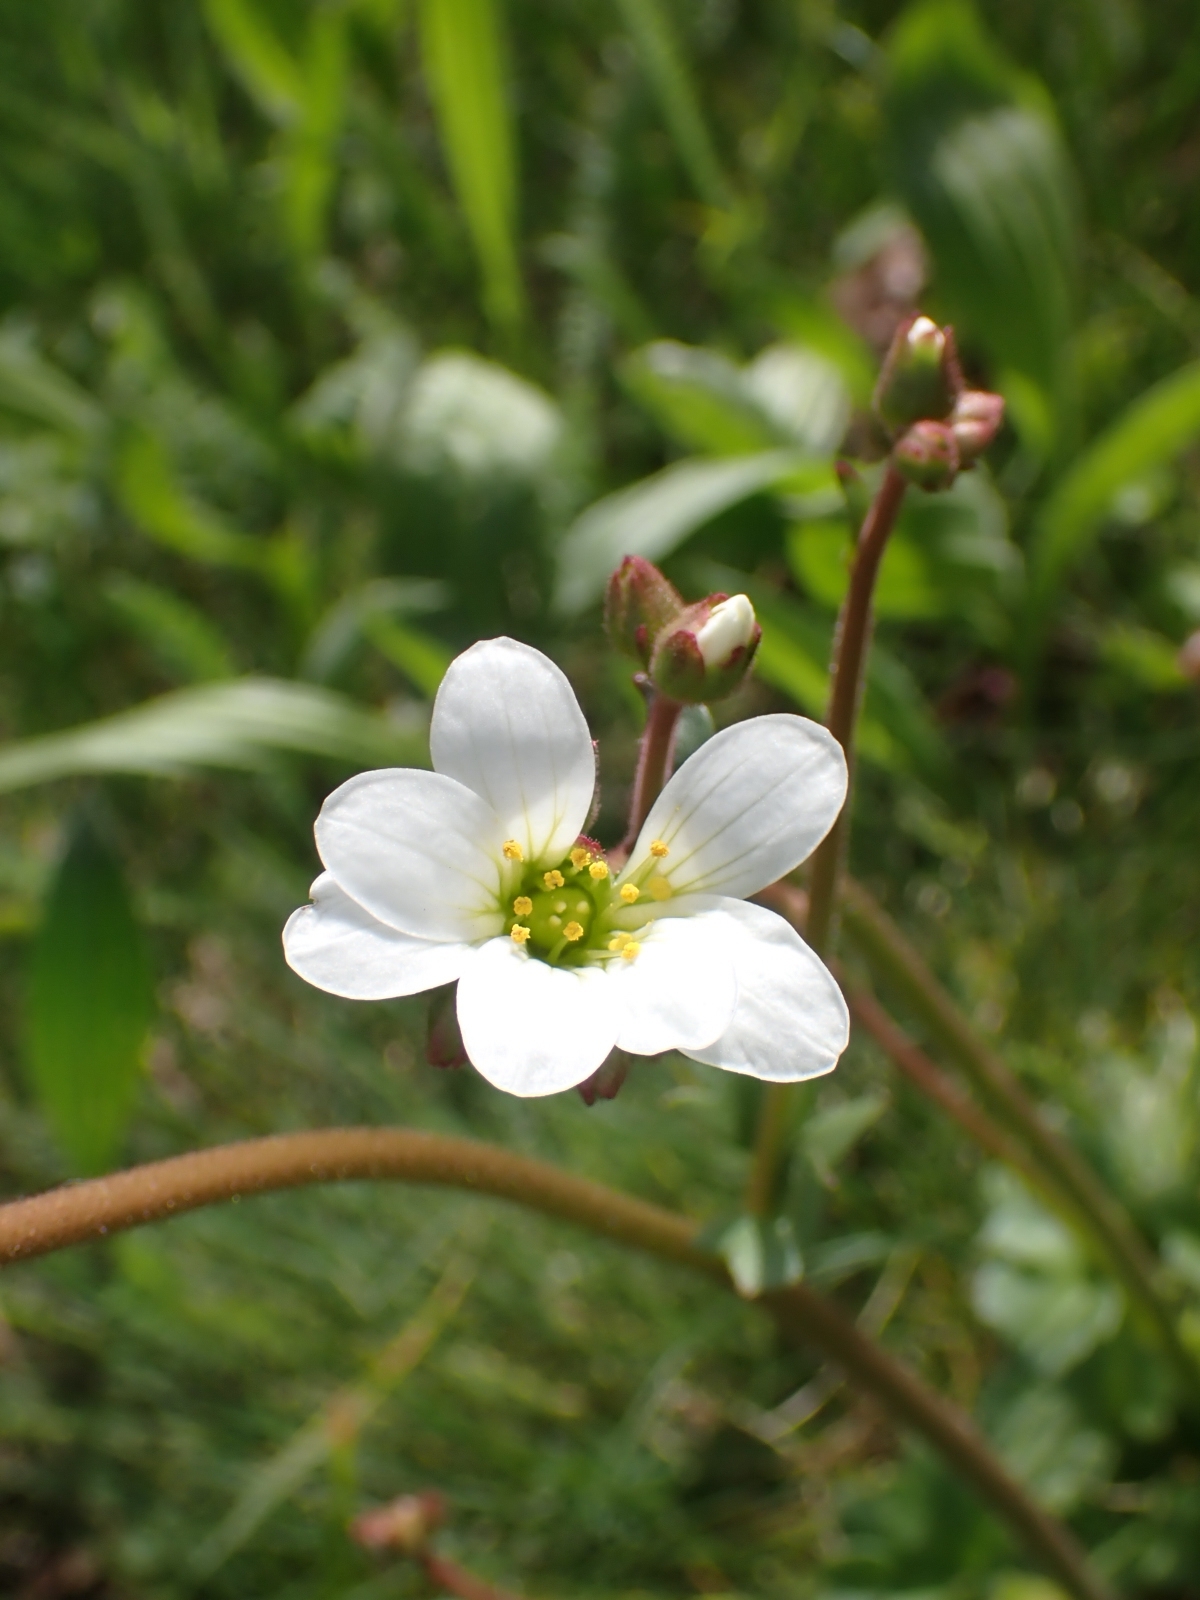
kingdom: Plantae
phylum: Tracheophyta
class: Magnoliopsida
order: Saxifragales
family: Saxifragaceae
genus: Saxifraga
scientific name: Saxifraga granulata
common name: Meadow saxifrage
